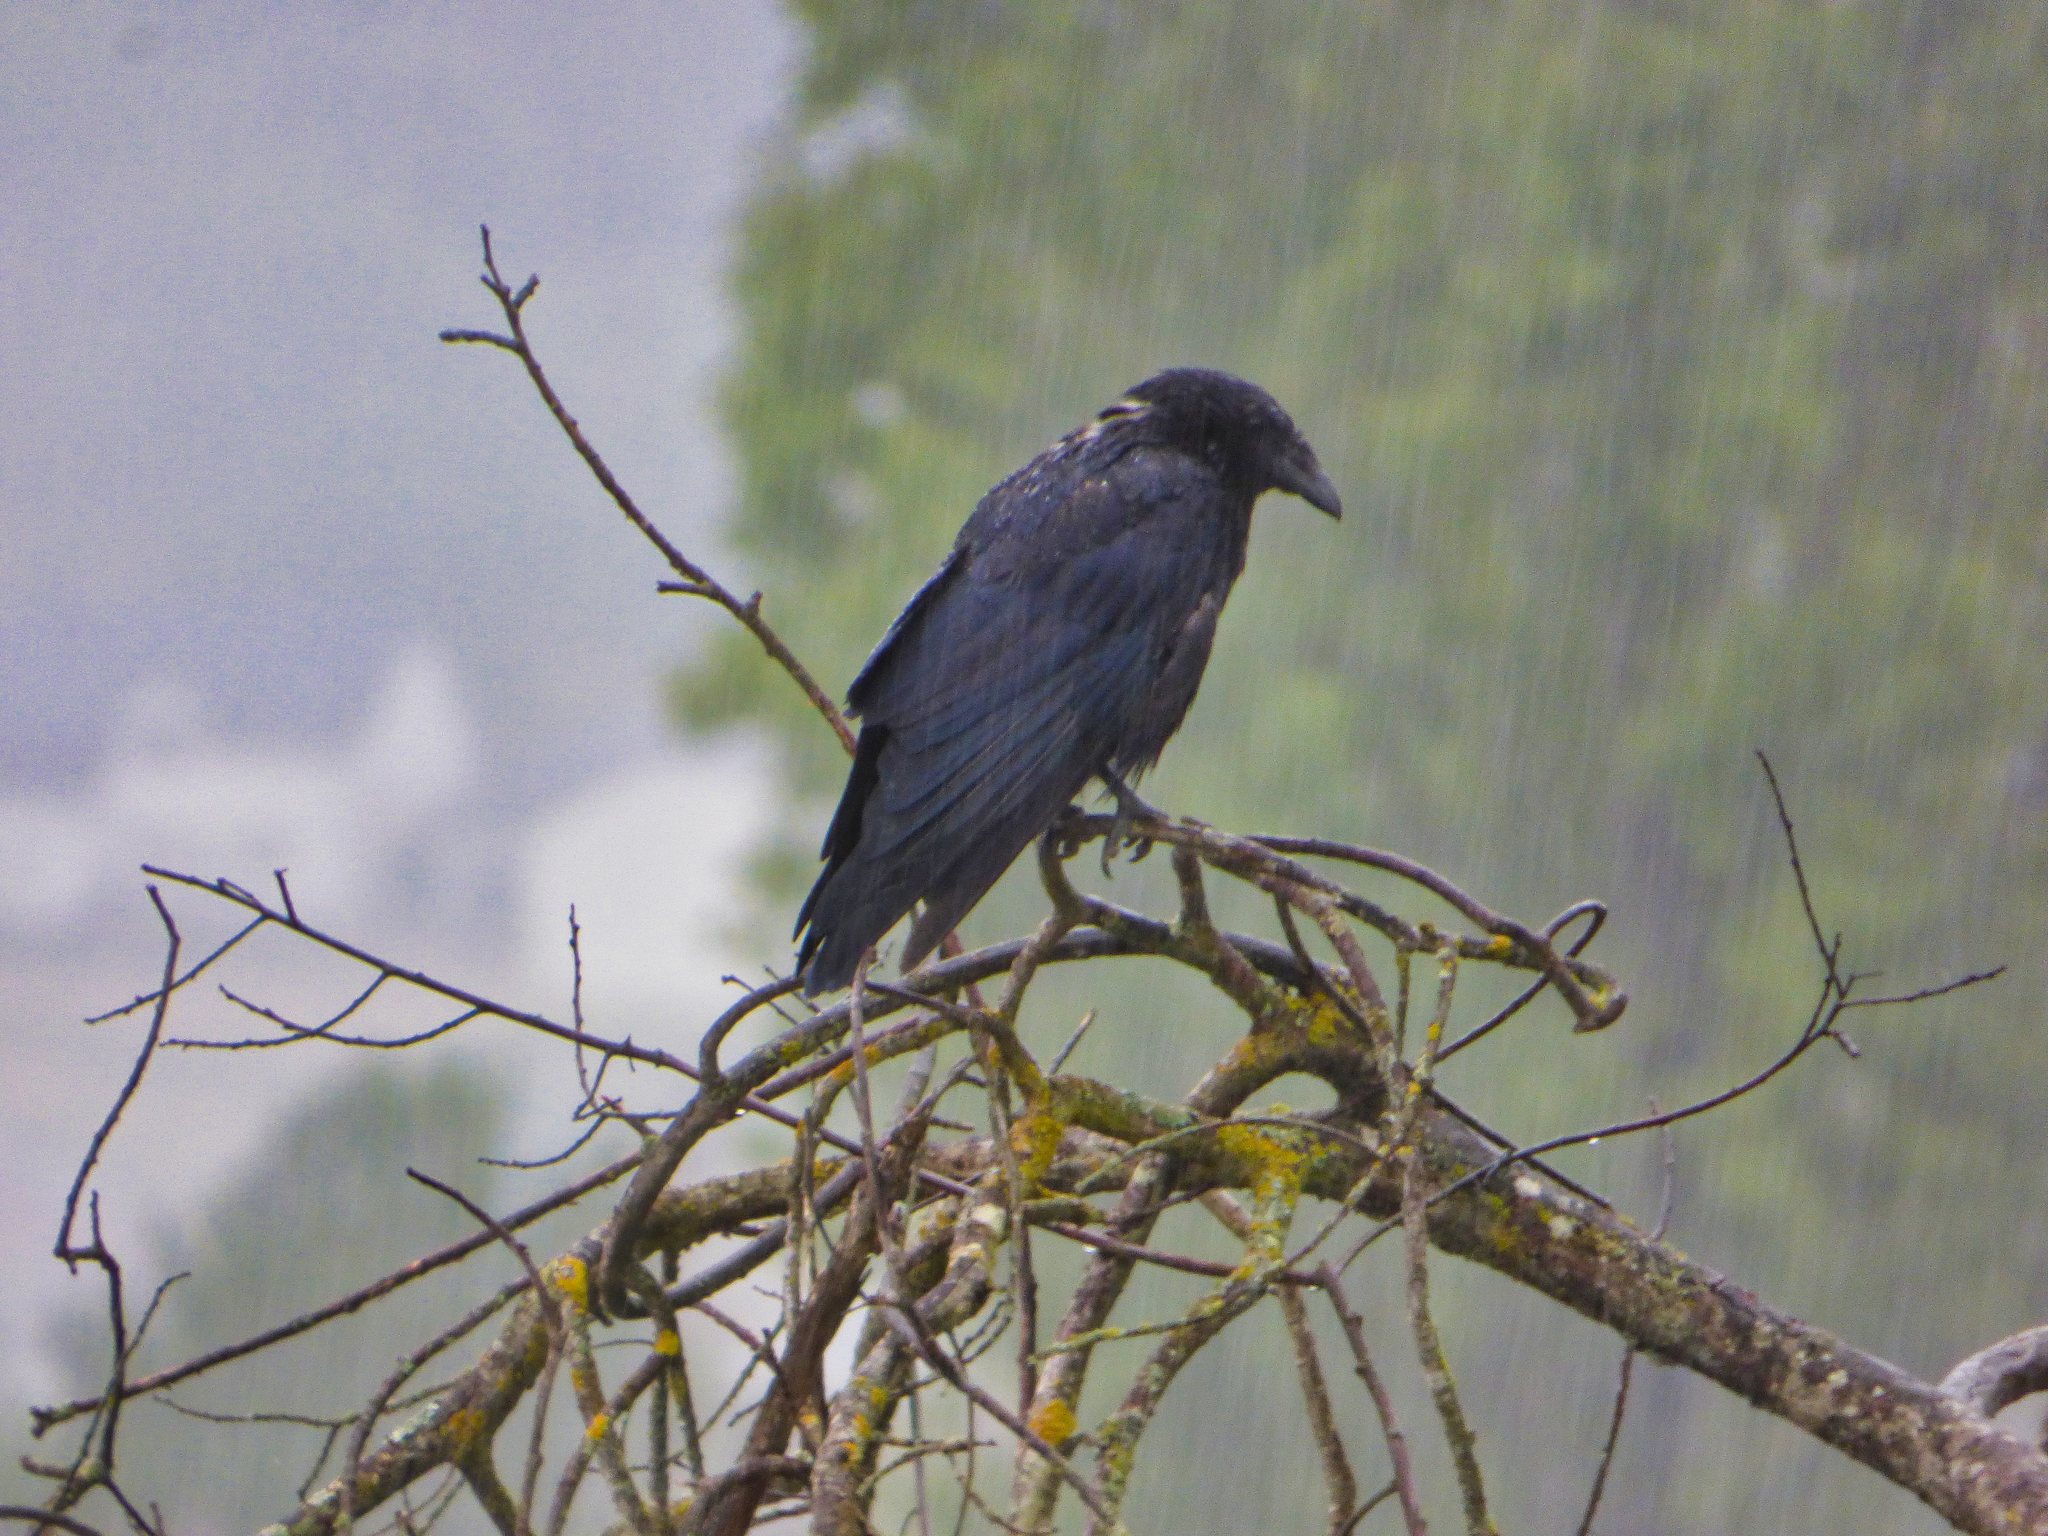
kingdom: Animalia
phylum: Chordata
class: Aves
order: Passeriformes
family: Corvidae
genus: Corvus
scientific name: Corvus corone
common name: Carrion crow
